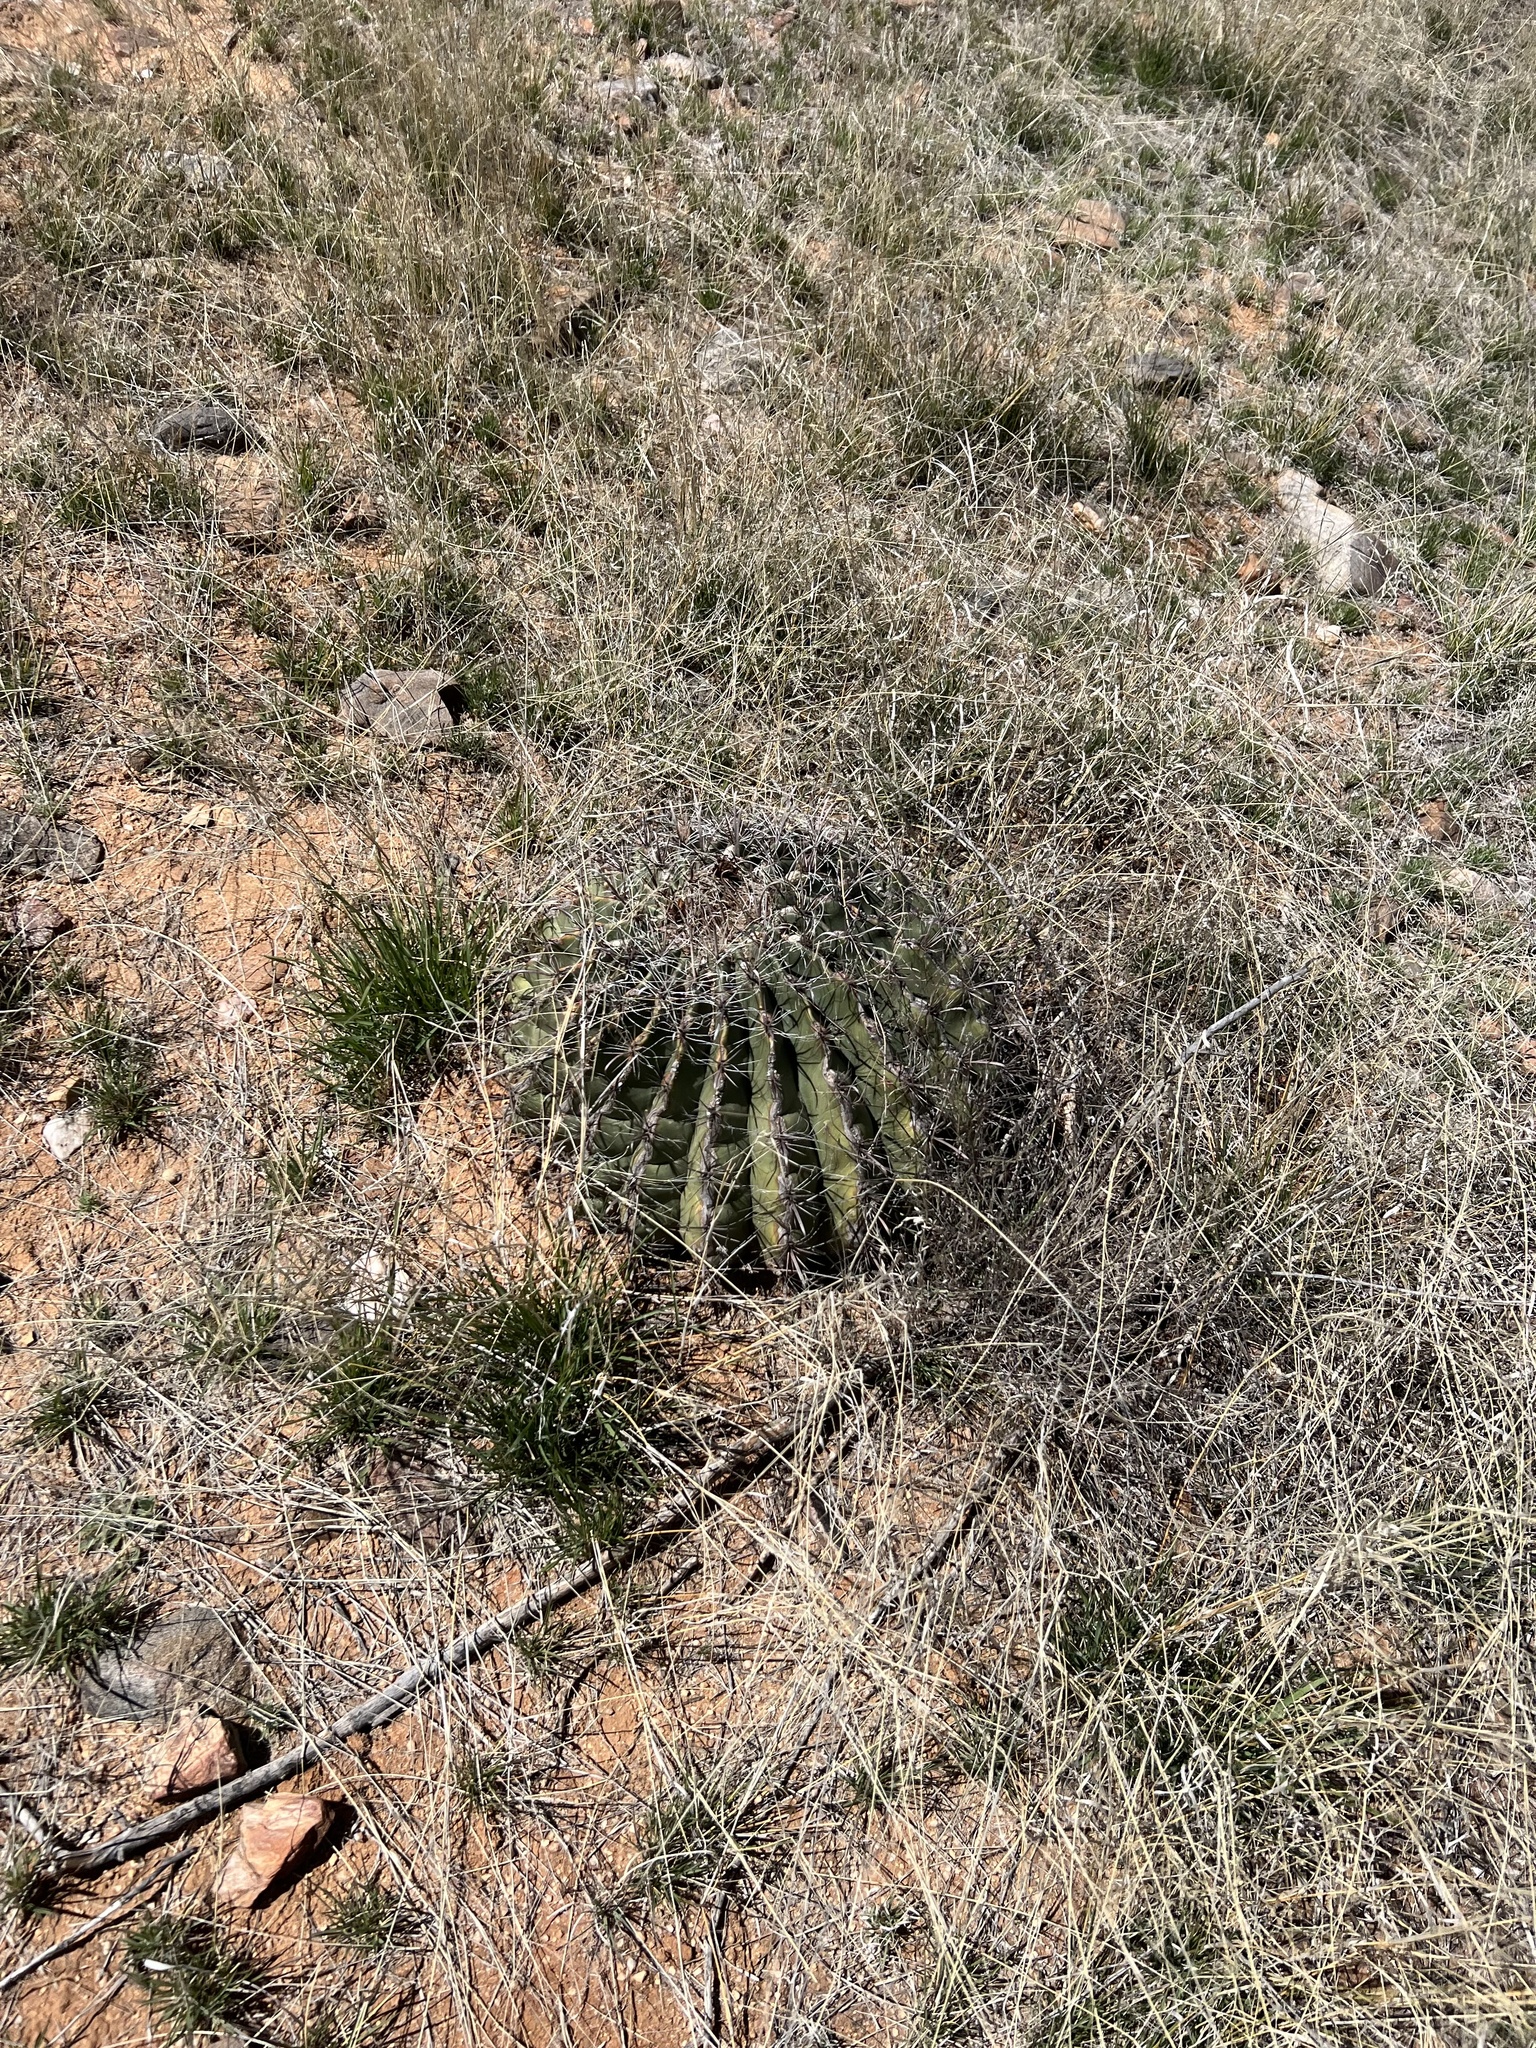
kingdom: Plantae
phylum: Tracheophyta
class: Magnoliopsida
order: Caryophyllales
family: Cactaceae
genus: Ferocactus
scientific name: Ferocactus wislizeni
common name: Candy barrel cactus
